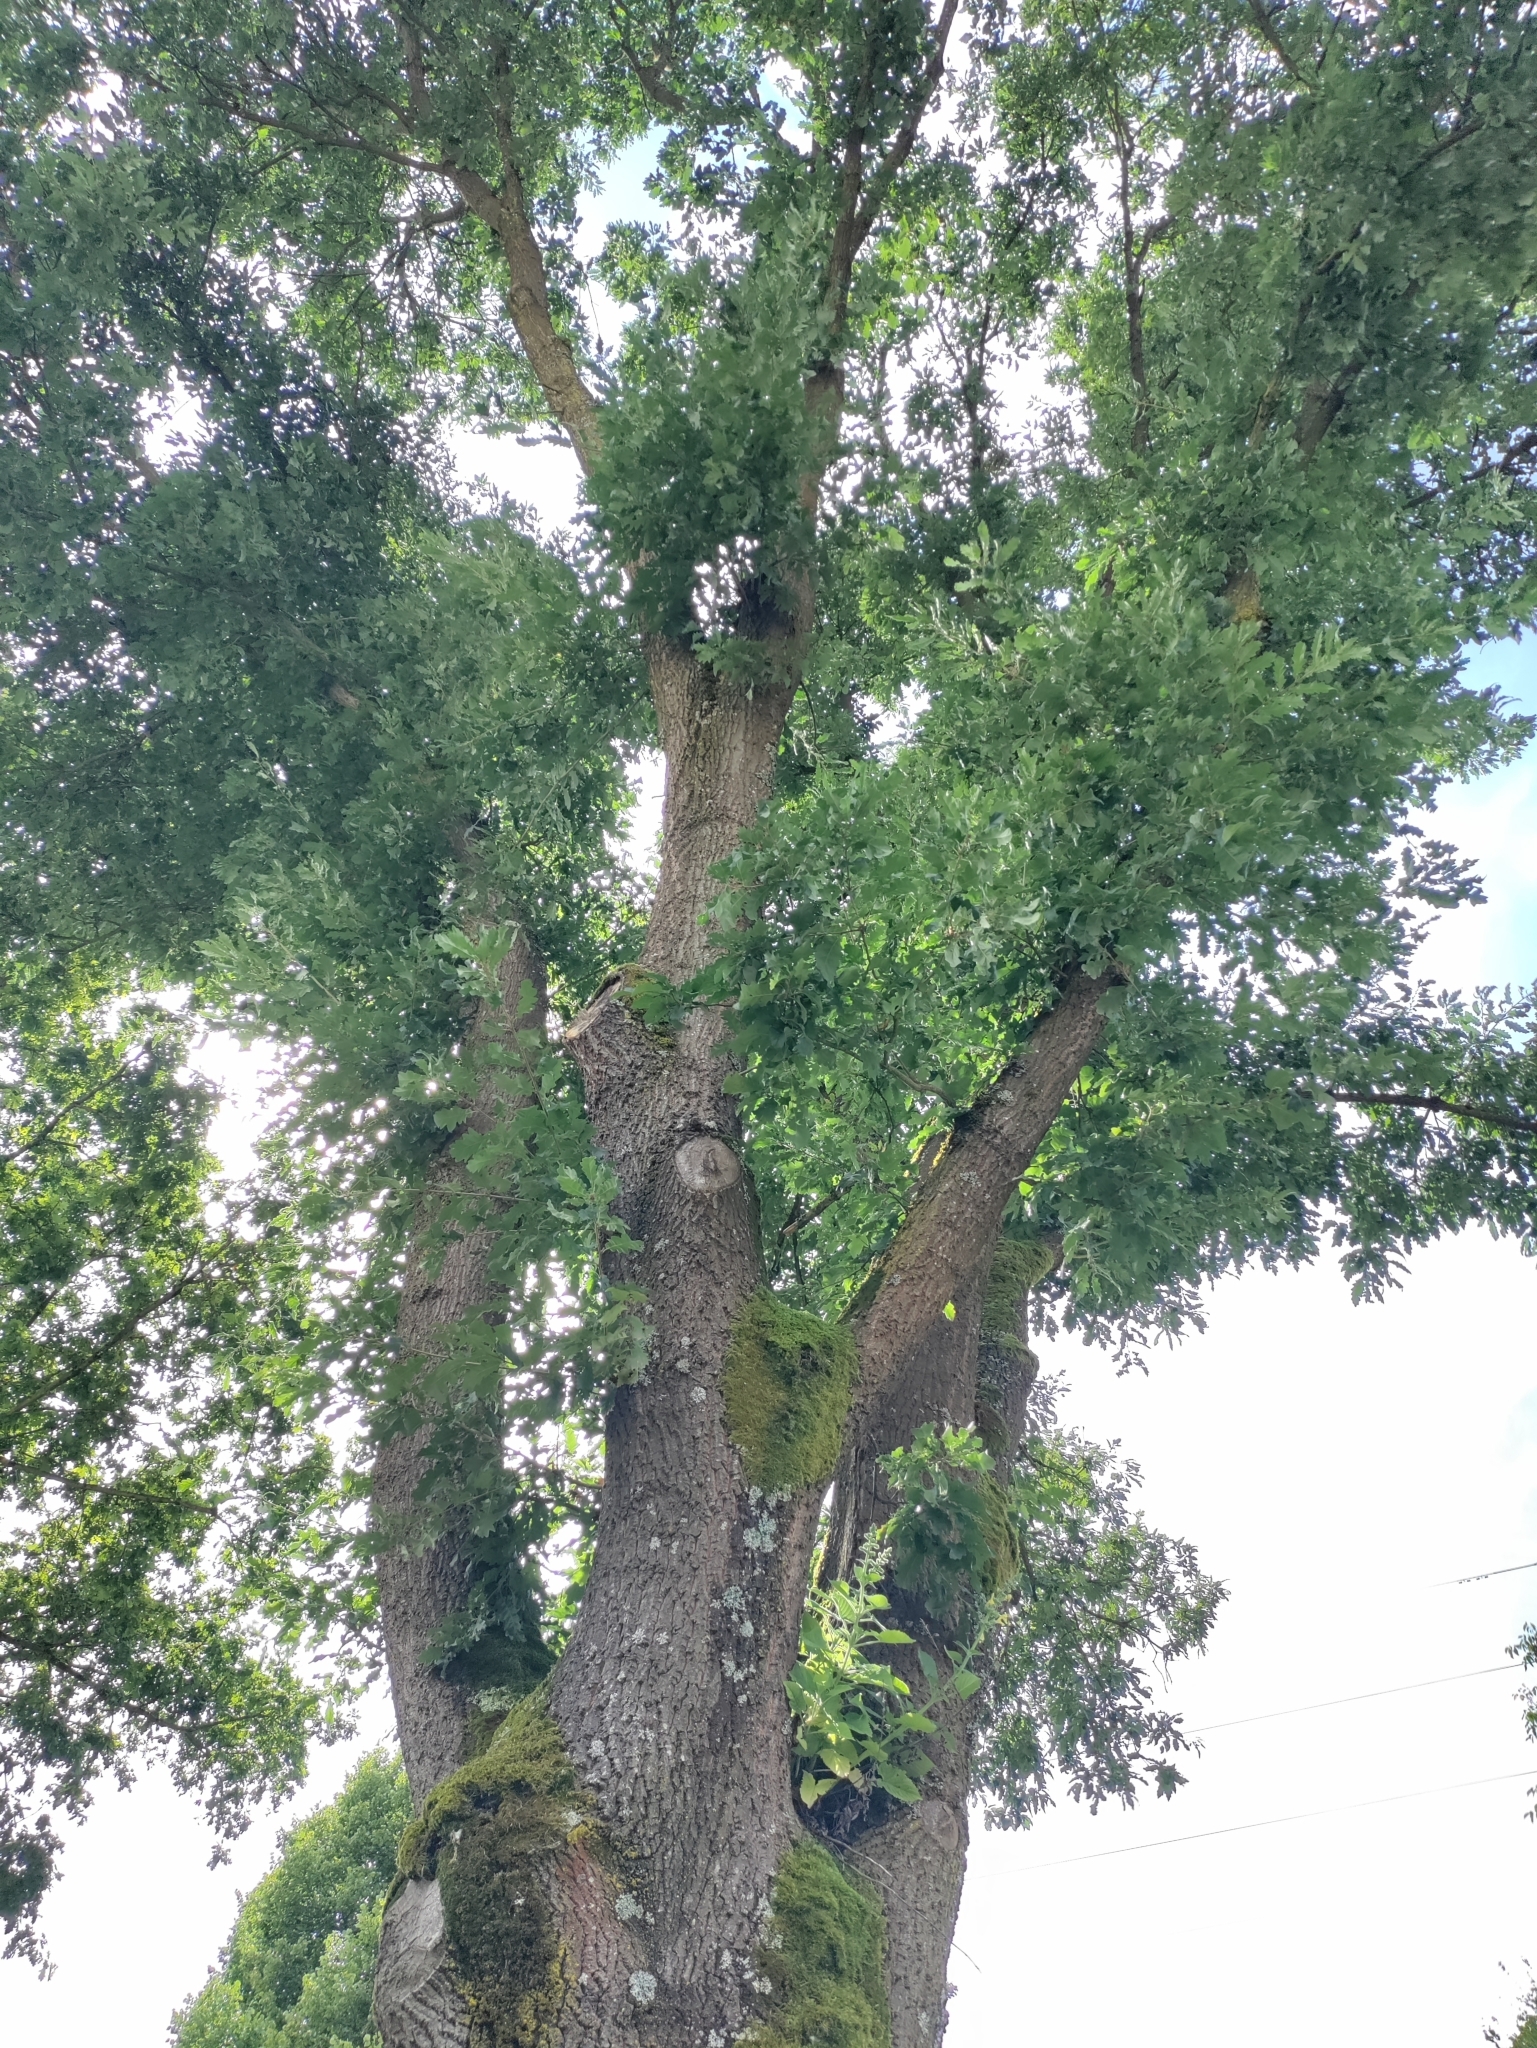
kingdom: Plantae
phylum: Tracheophyta
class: Magnoliopsida
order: Fagales
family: Fagaceae
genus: Quercus
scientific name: Quercus cerris
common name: Turkey oak
